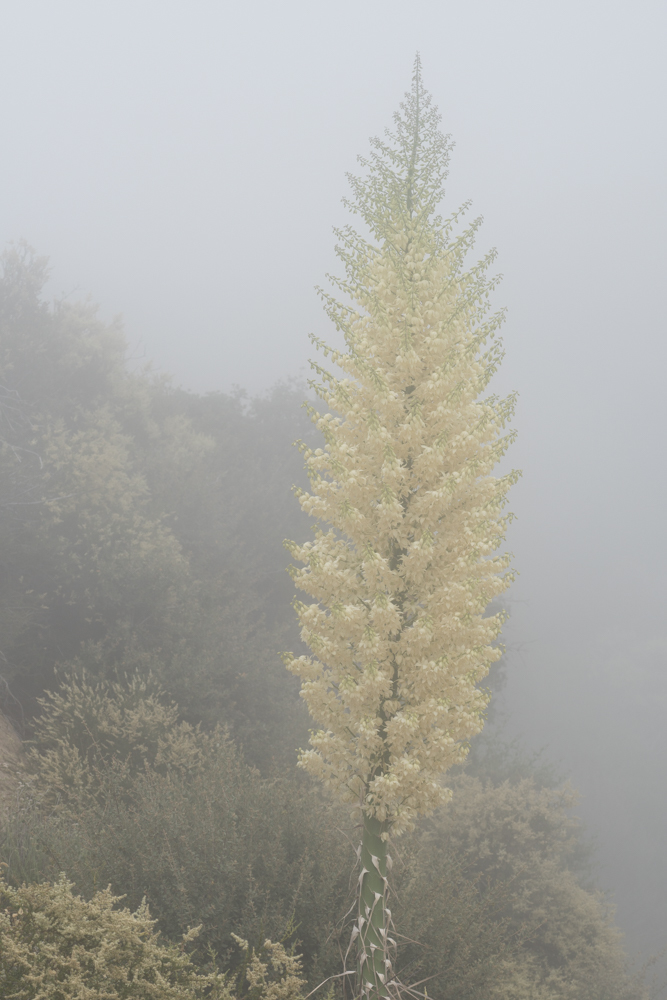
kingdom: Plantae
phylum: Tracheophyta
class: Liliopsida
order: Asparagales
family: Asparagaceae
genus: Hesperoyucca
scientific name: Hesperoyucca whipplei
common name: Our lord's-candle
